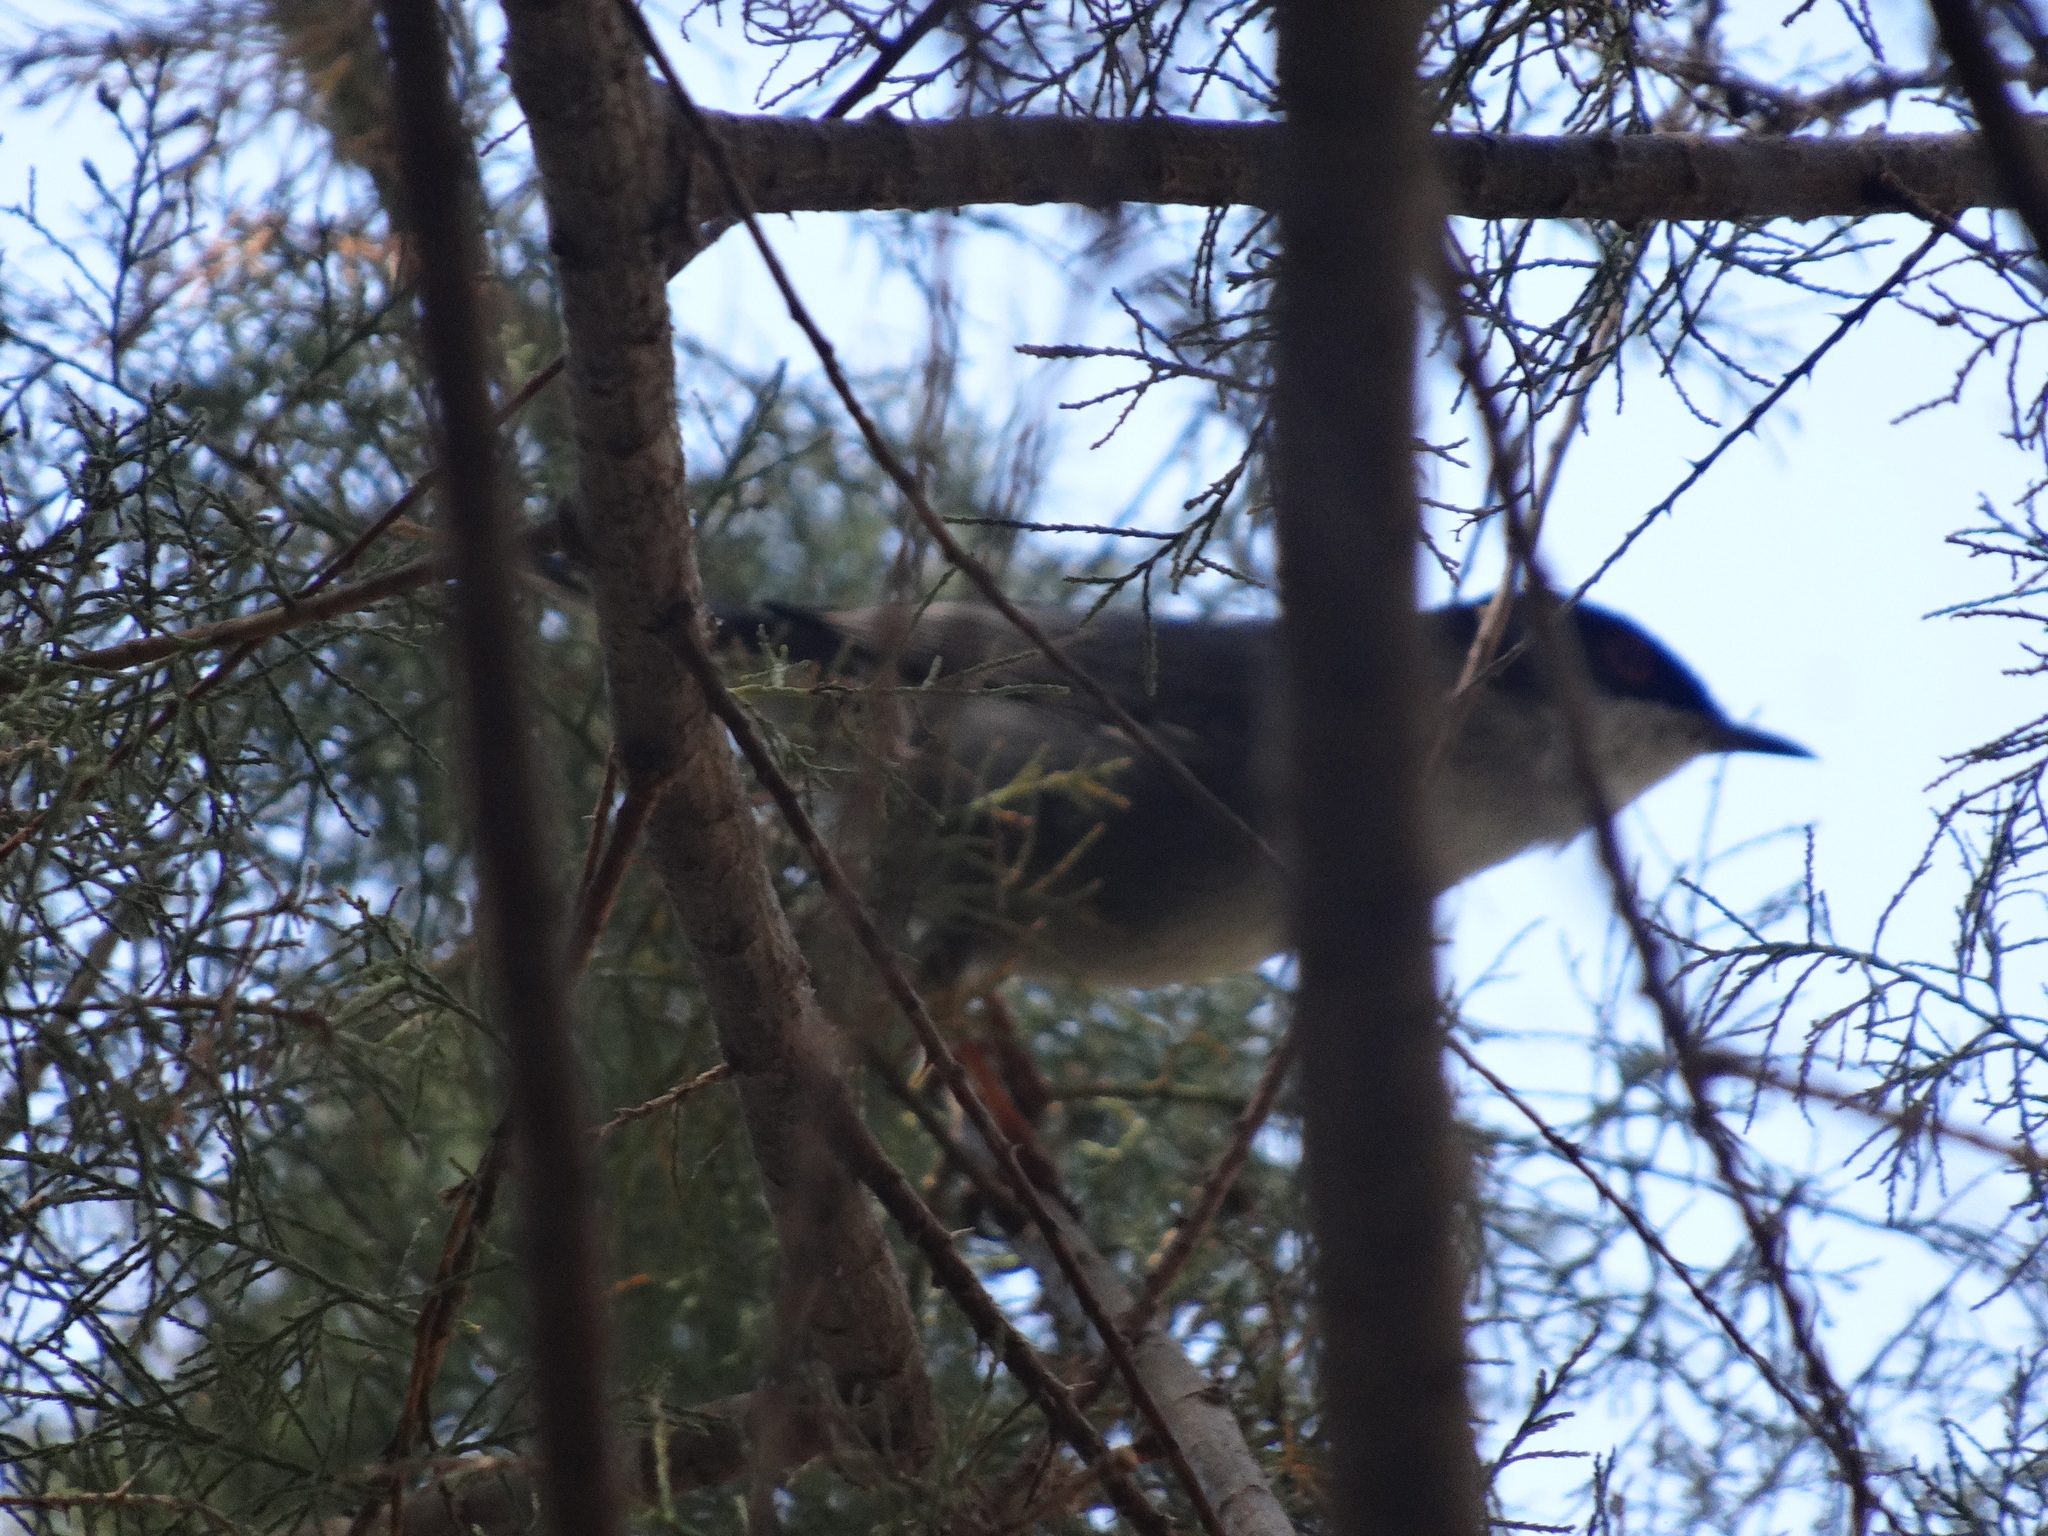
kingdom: Animalia
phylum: Chordata
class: Aves
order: Passeriformes
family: Sylviidae
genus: Curruca
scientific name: Curruca melanocephala
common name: Sardinian warbler
